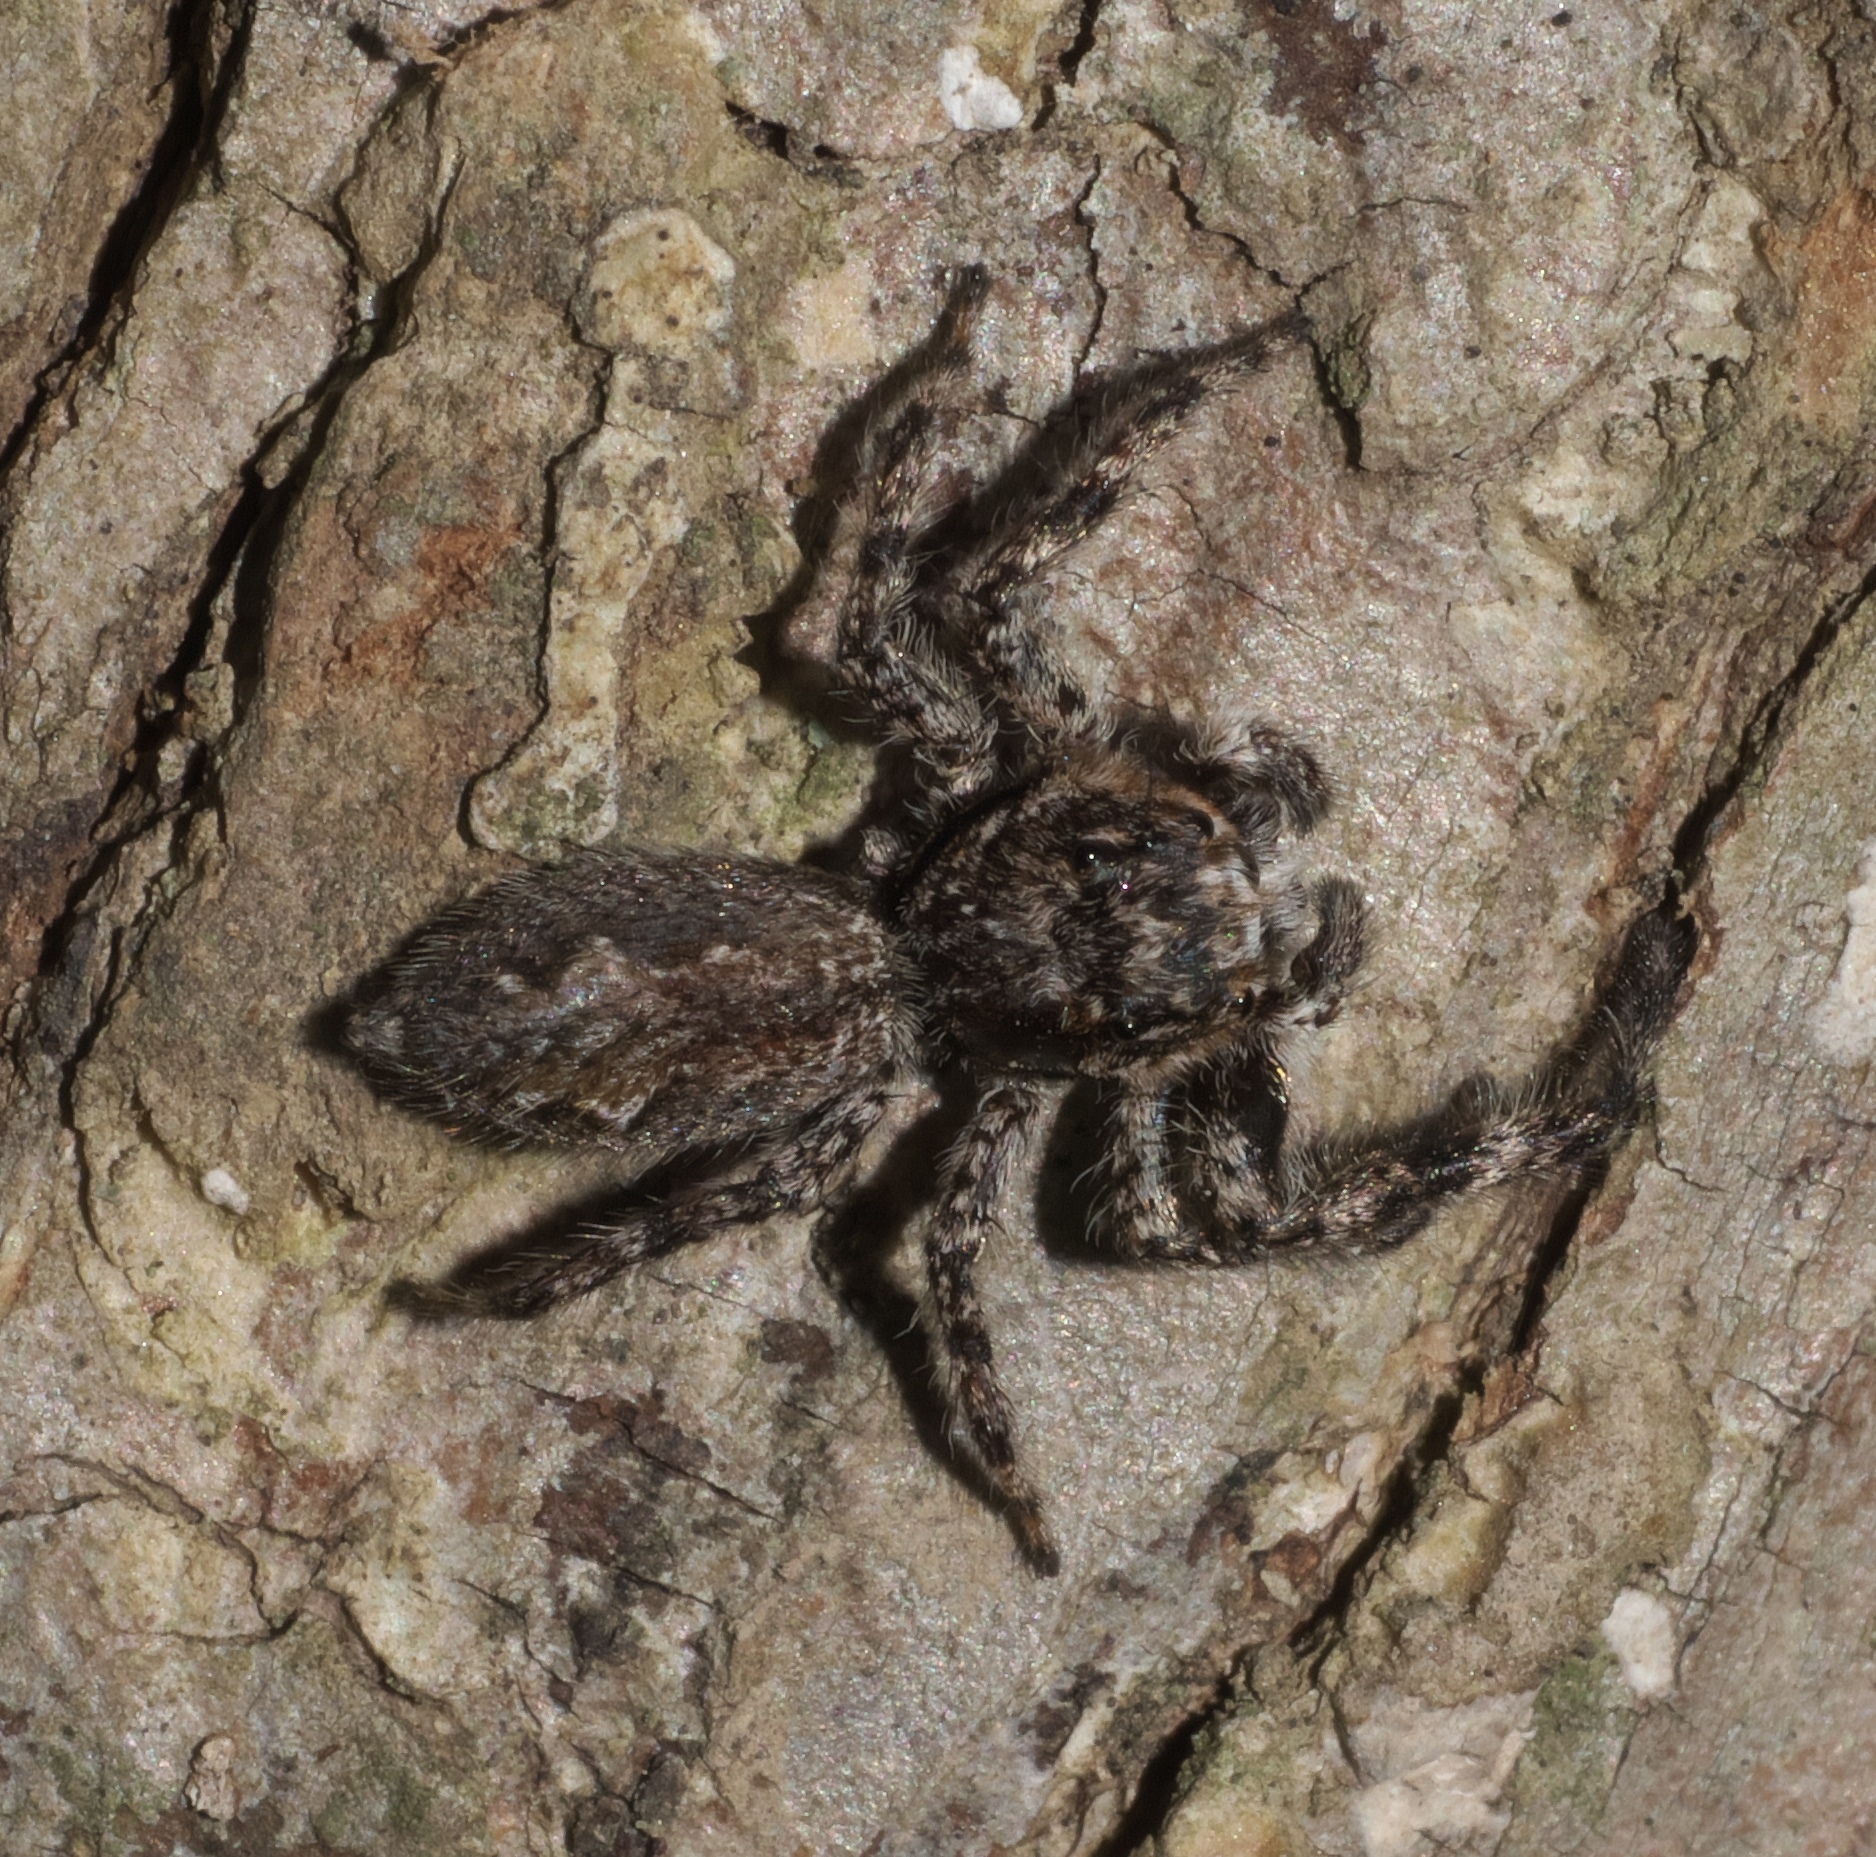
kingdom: Animalia
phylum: Arthropoda
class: Arachnida
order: Araneae
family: Salticidae
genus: Platycryptus
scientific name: Platycryptus undatus
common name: Tan jumping spider
